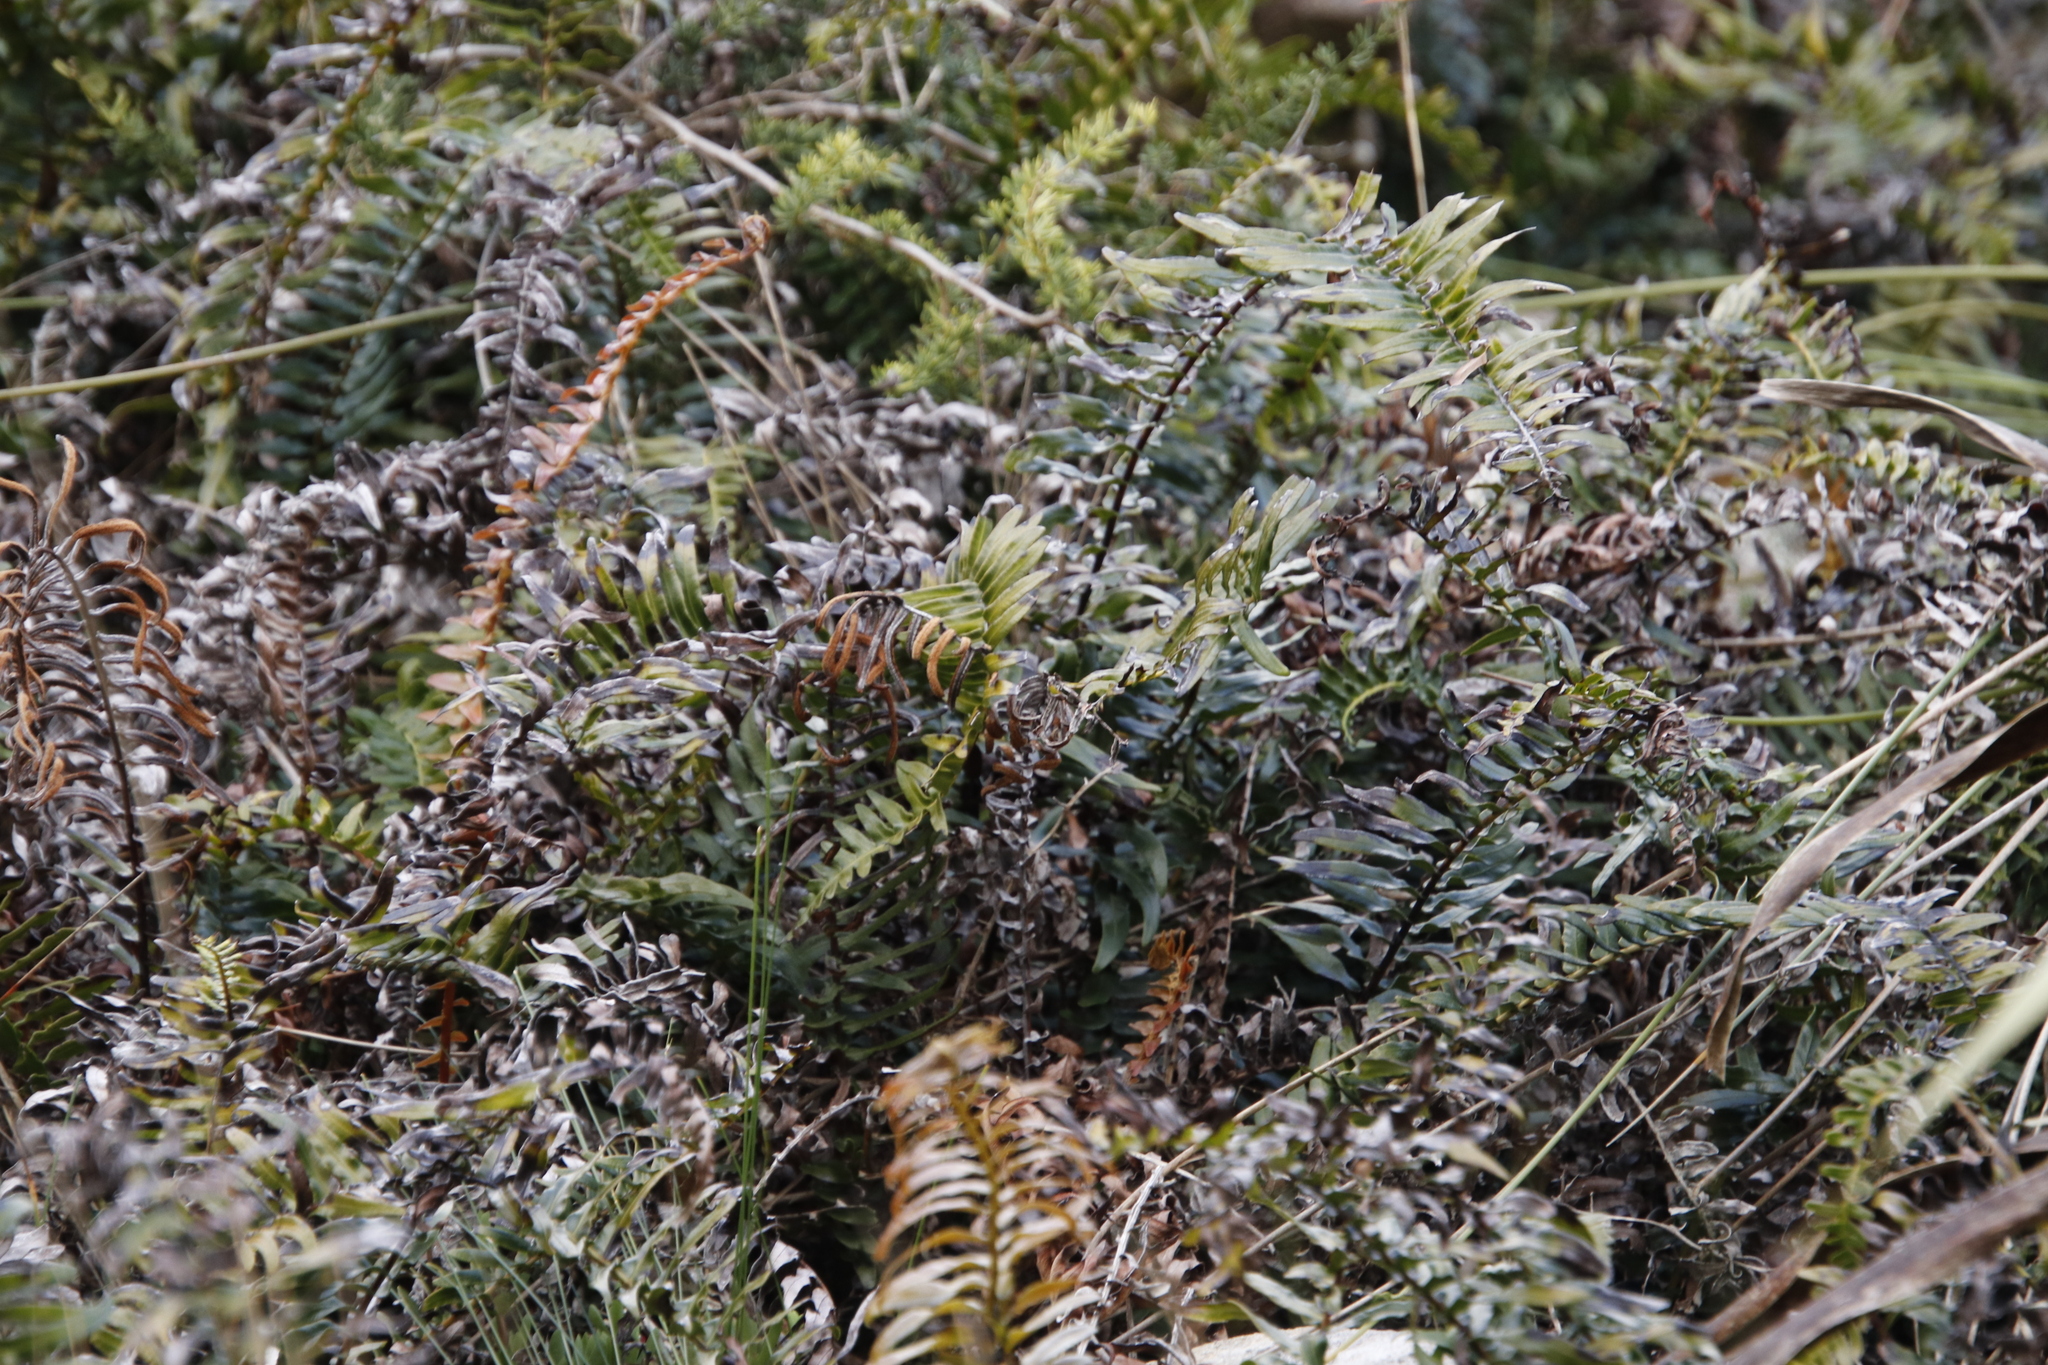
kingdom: Plantae
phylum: Tracheophyta
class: Polypodiopsida
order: Polypodiales
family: Blechnaceae
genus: Blechnum
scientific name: Blechnum punctulatum
